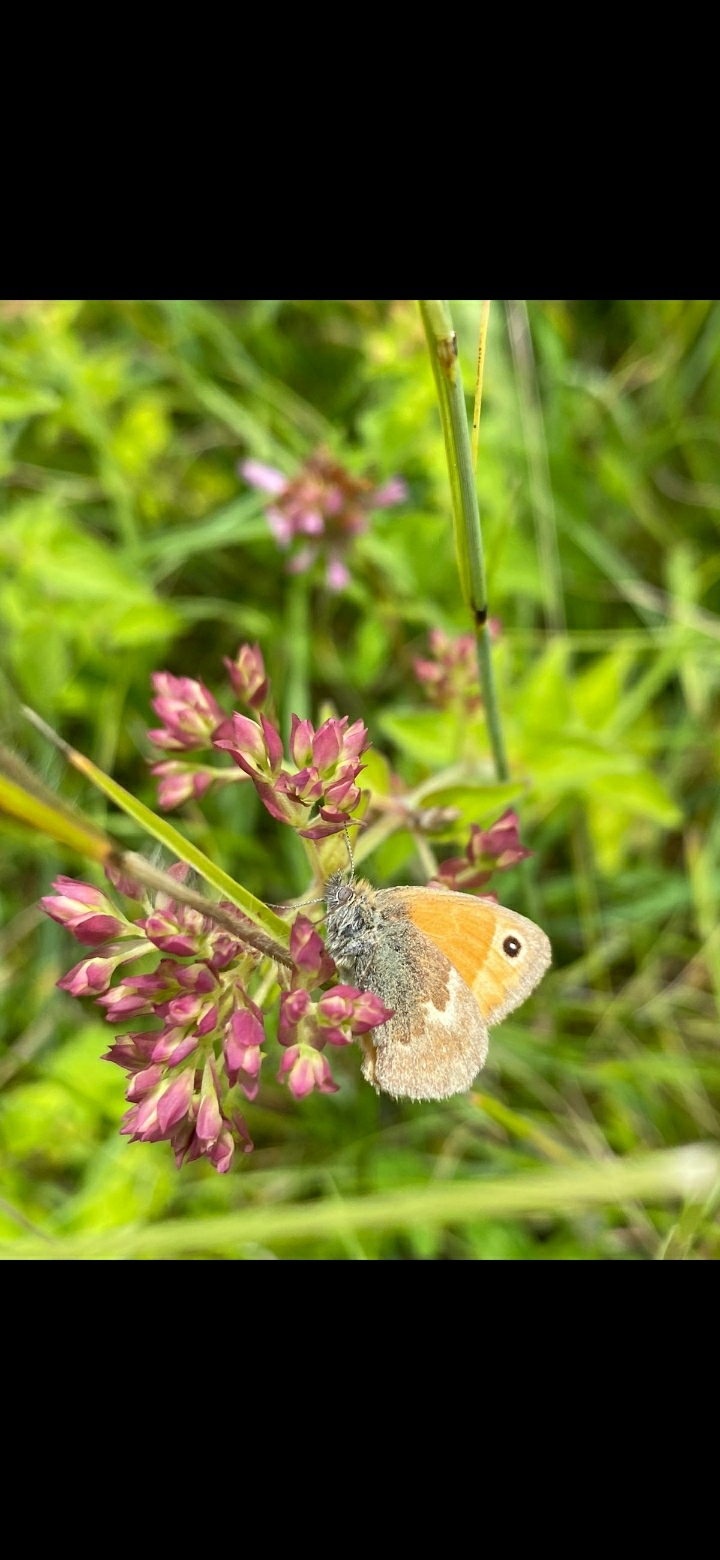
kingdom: Animalia
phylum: Arthropoda
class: Insecta
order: Lepidoptera
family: Nymphalidae
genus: Coenonympha
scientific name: Coenonympha pamphilus
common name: Small heath
